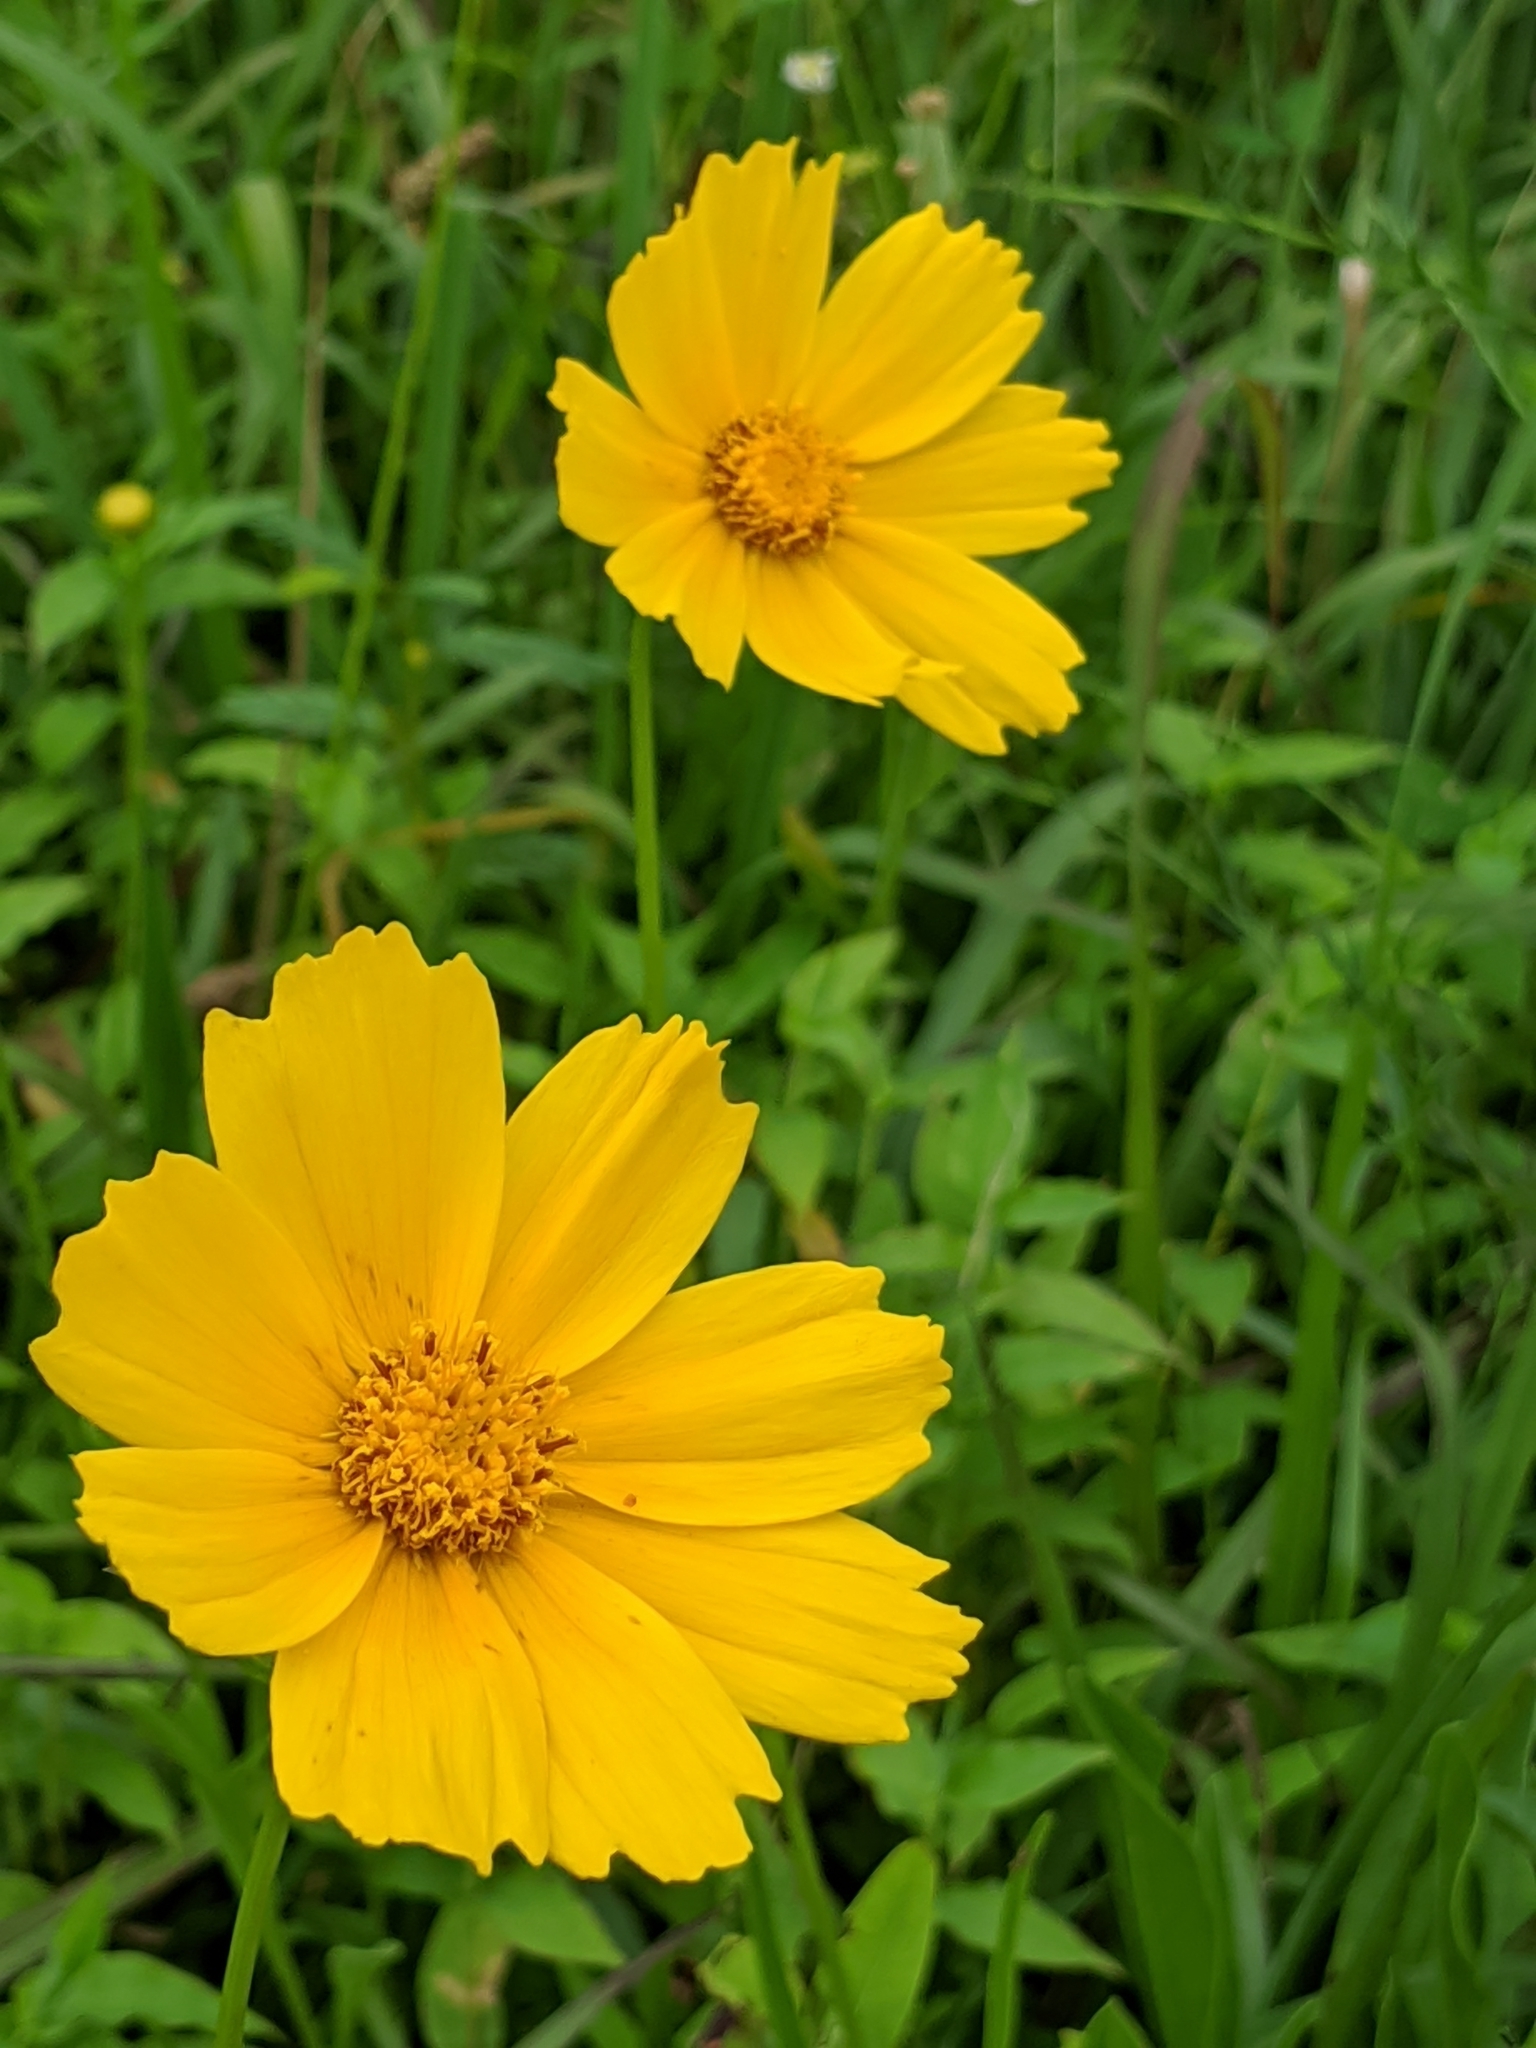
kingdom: Plantae
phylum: Tracheophyta
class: Magnoliopsida
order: Asterales
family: Asteraceae
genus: Coreopsis
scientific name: Coreopsis lanceolata
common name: Garden coreopsis
